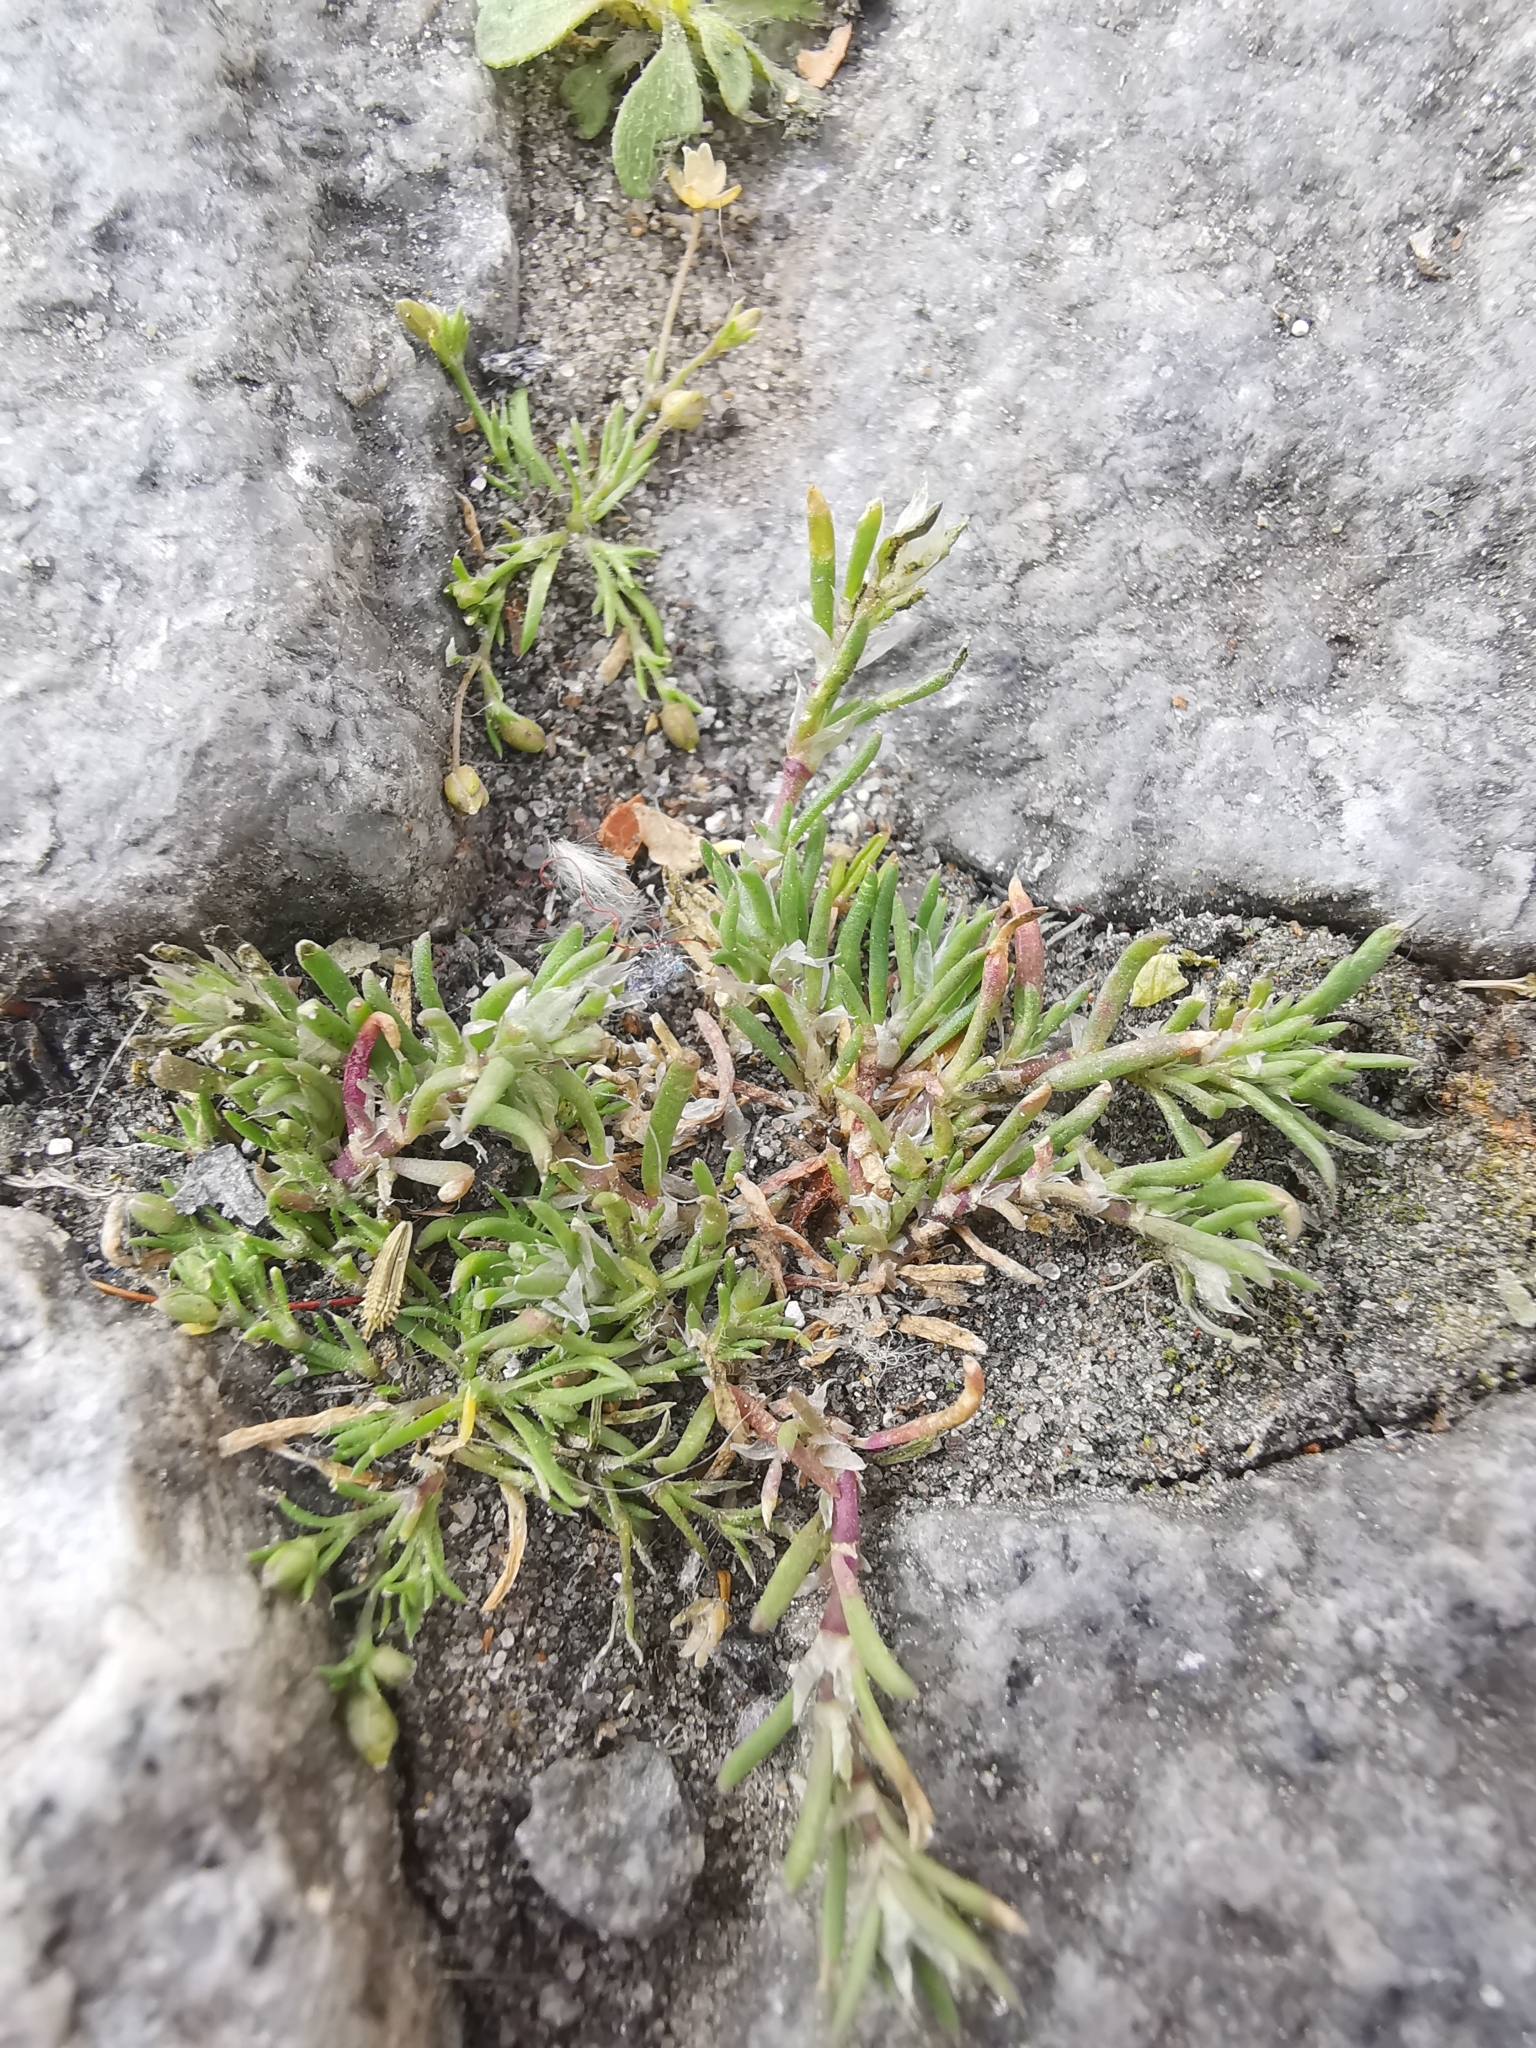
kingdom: Plantae
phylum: Tracheophyta
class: Magnoliopsida
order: Caryophyllales
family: Caryophyllaceae
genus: Spergularia
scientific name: Spergularia rubra
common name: Red sand-spurrey
